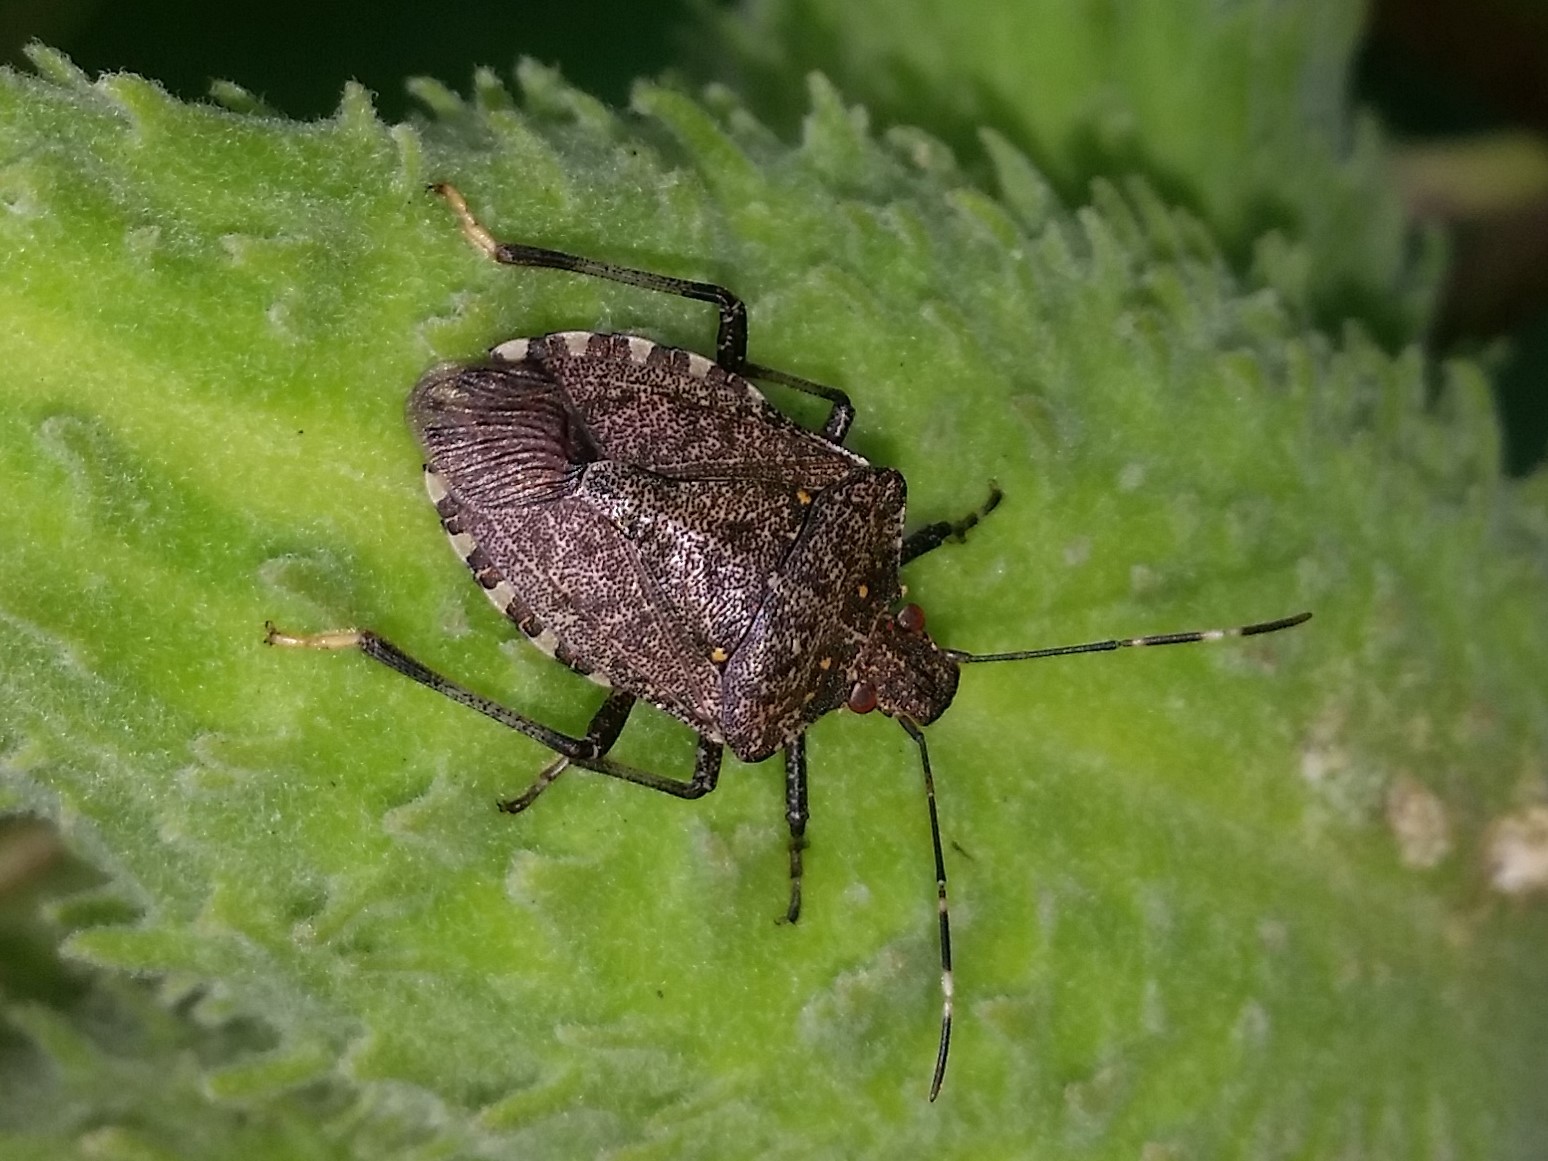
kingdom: Animalia
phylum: Arthropoda
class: Insecta
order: Hemiptera
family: Pentatomidae
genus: Halyomorpha
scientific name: Halyomorpha halys
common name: Brown marmorated stink bug
